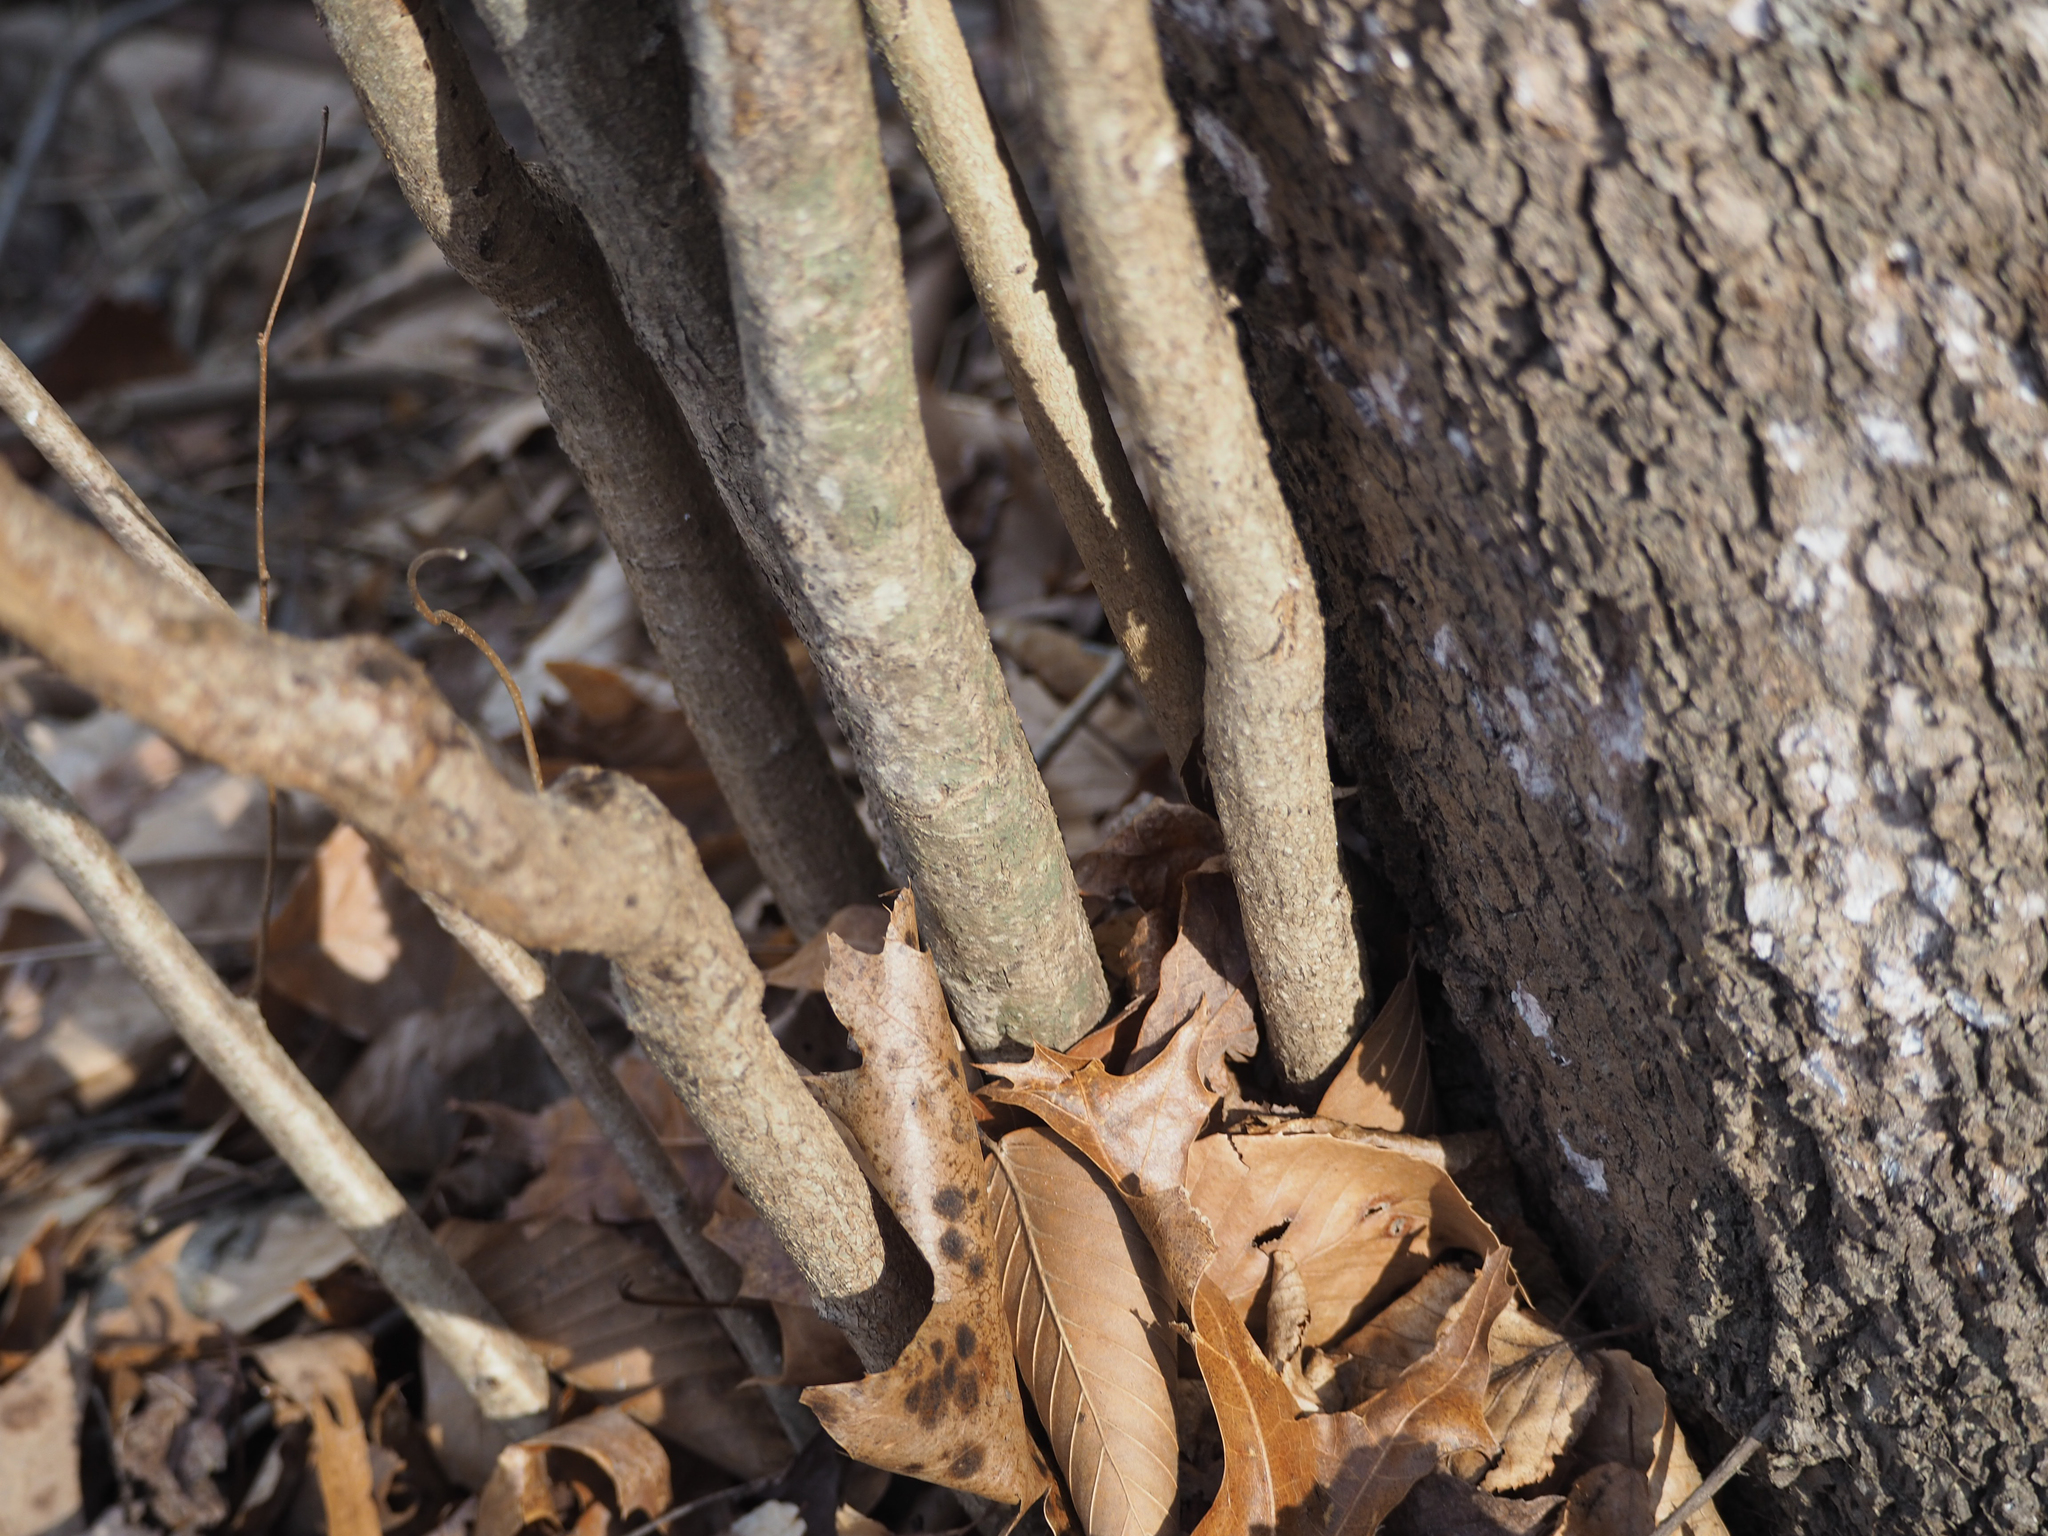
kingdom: Plantae
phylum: Tracheophyta
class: Magnoliopsida
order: Fagales
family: Betulaceae
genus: Corylus
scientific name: Corylus americana
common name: American hazel
